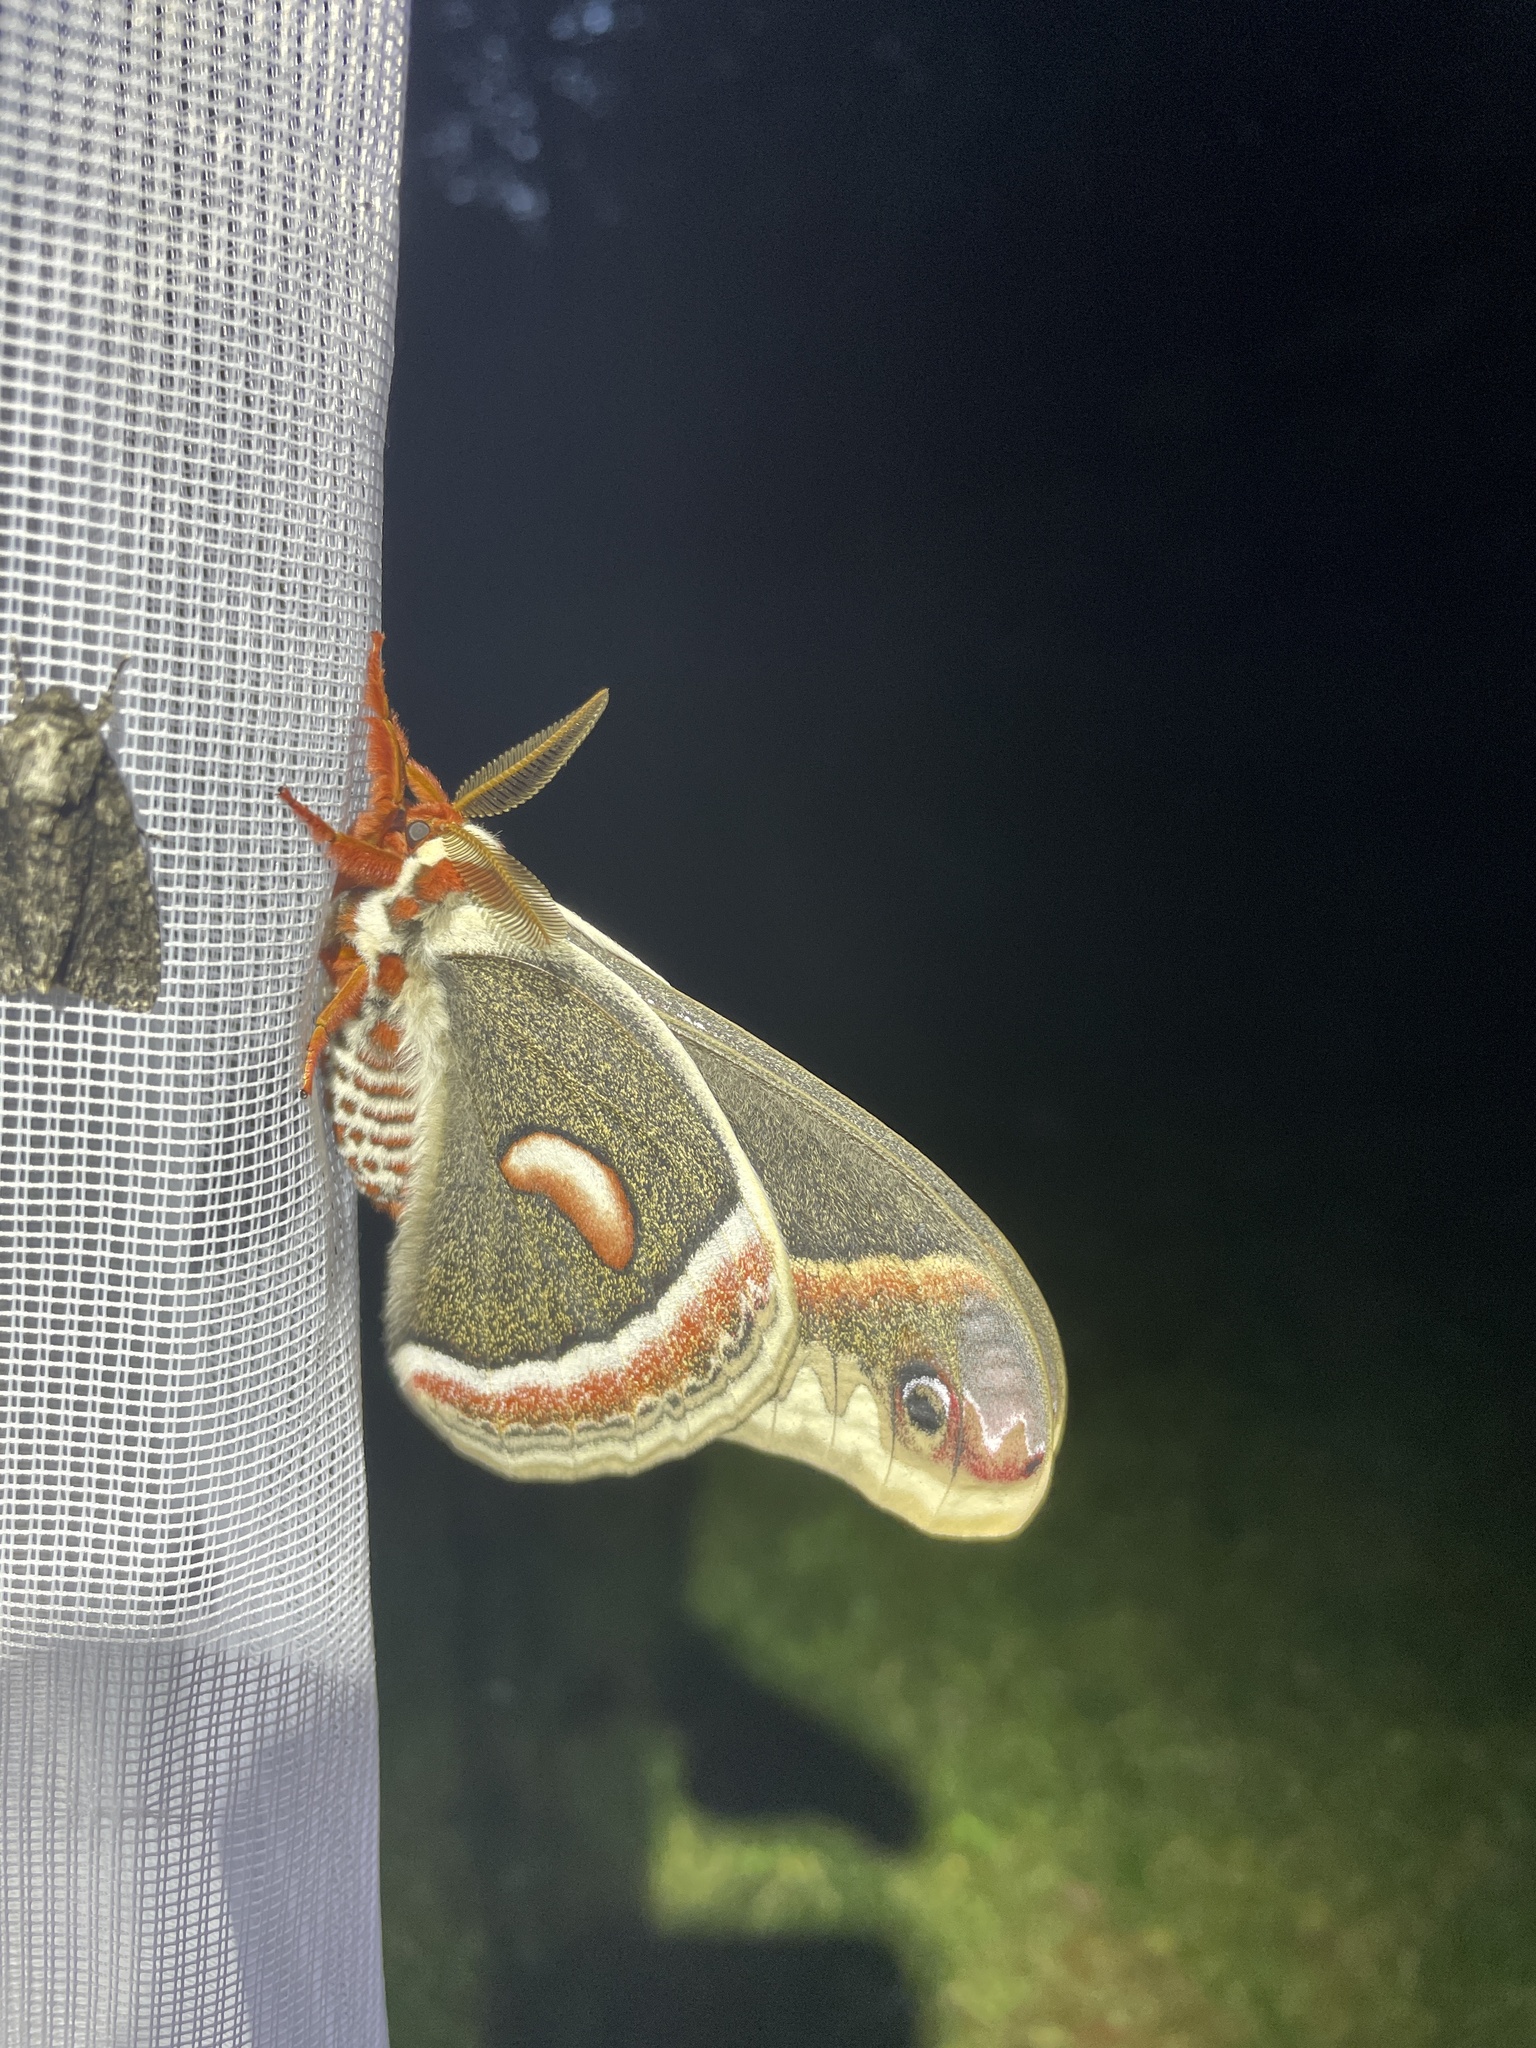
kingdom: Animalia
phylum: Arthropoda
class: Insecta
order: Lepidoptera
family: Saturniidae
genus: Hyalophora
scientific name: Hyalophora cecropia
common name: Cecropia silkmoth
